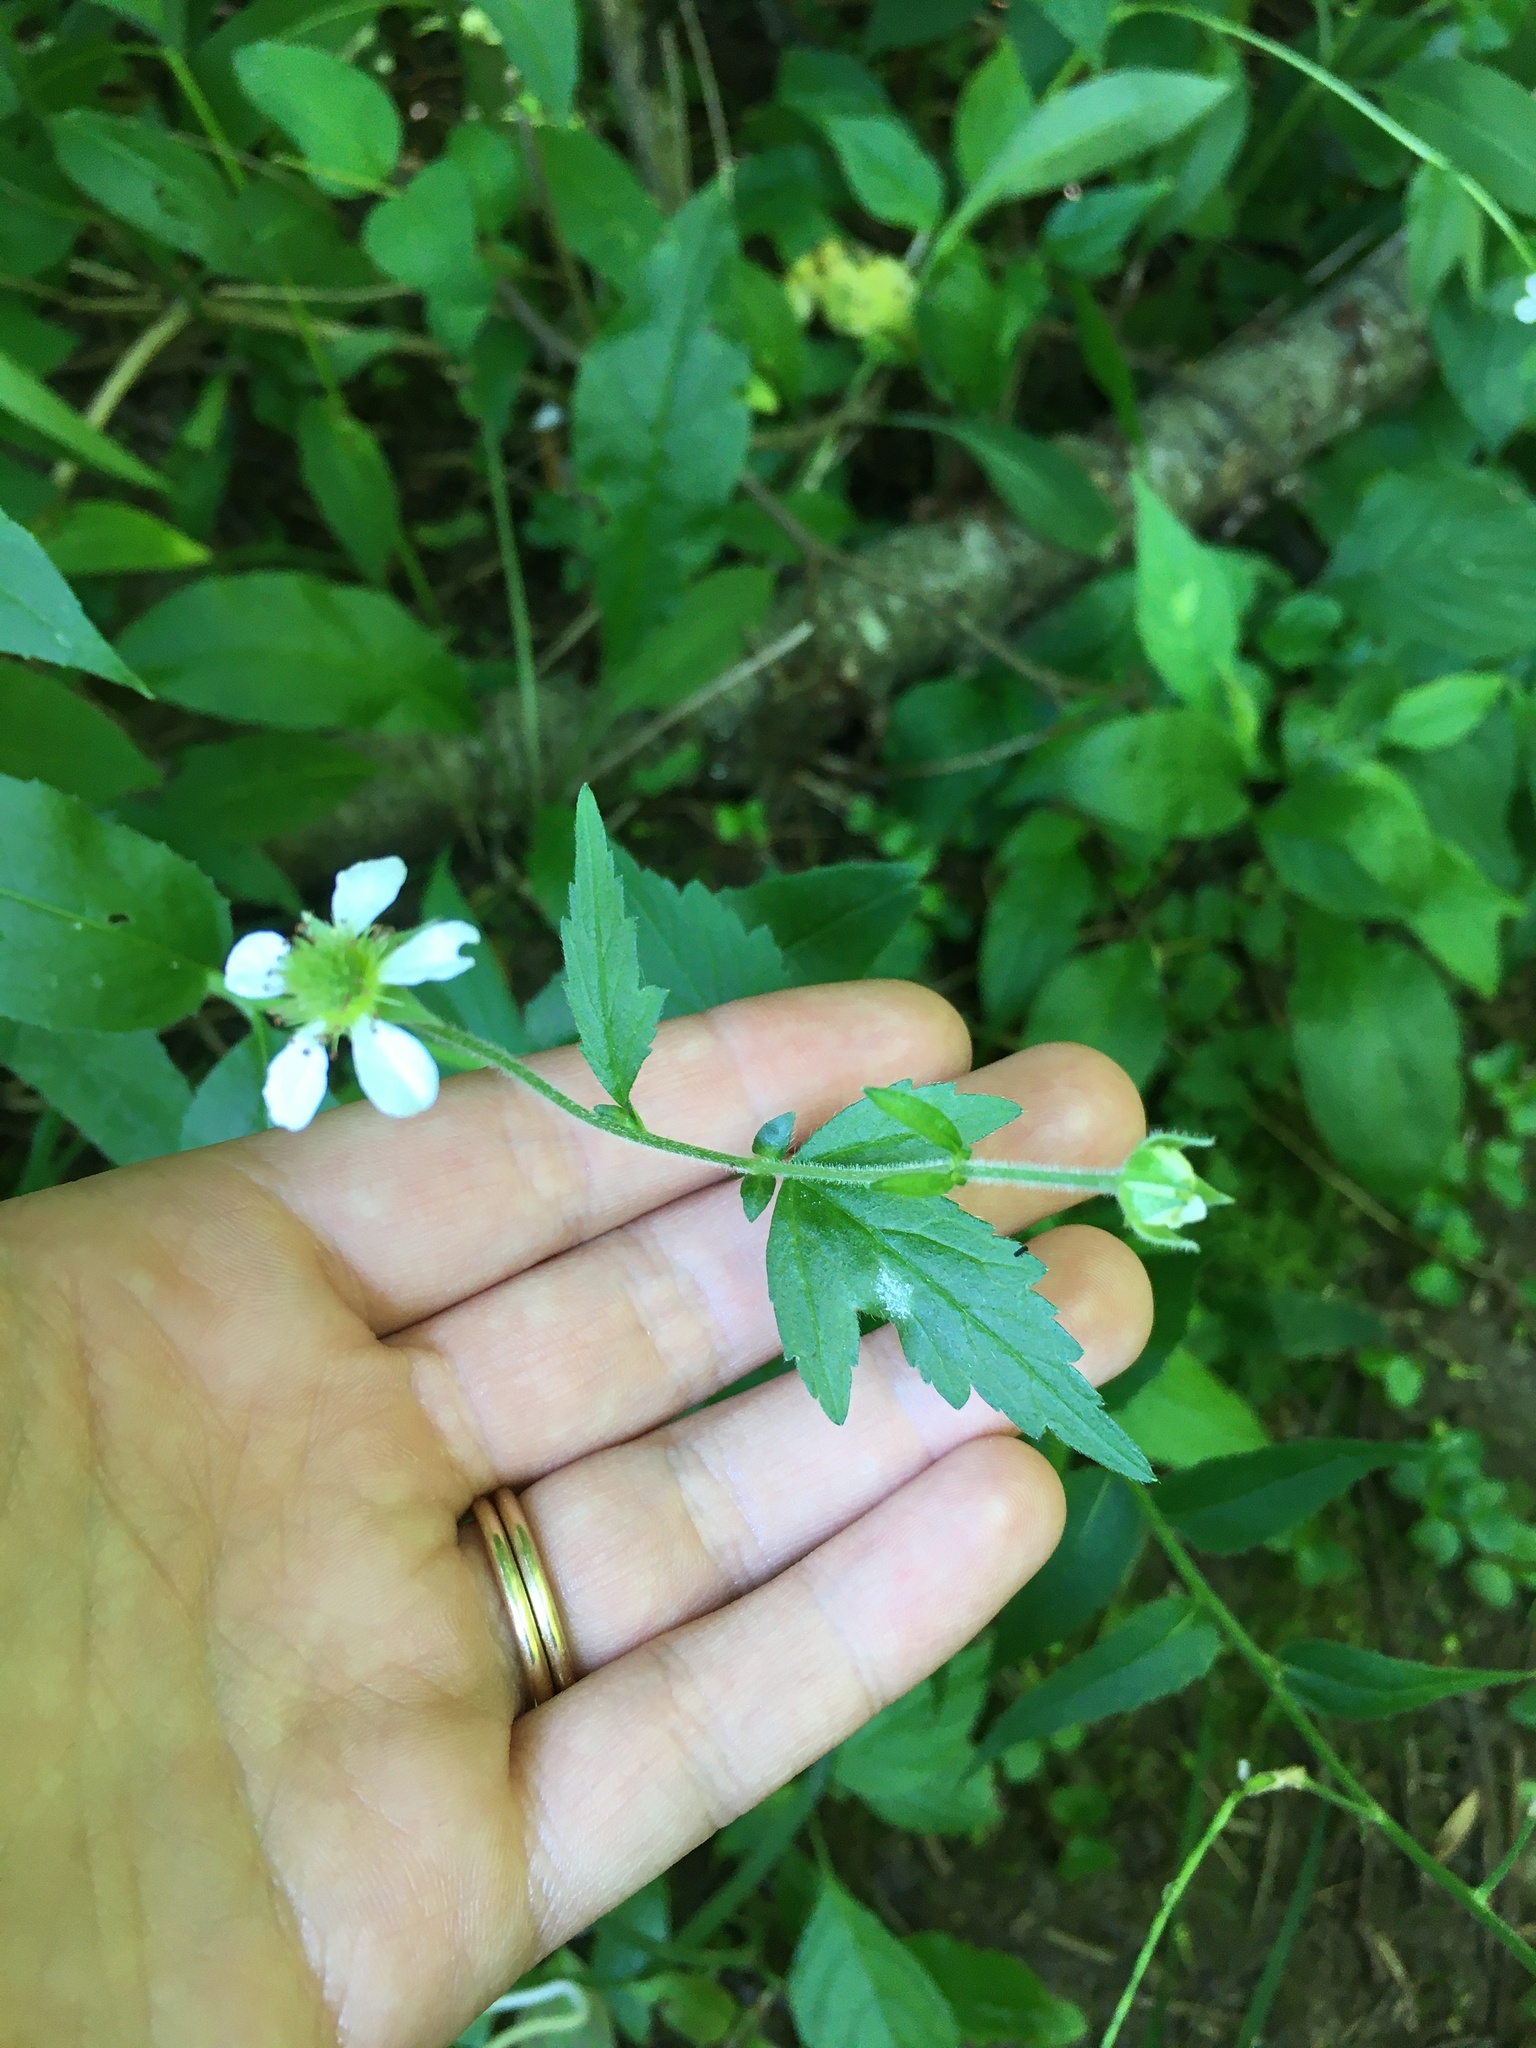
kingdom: Plantae
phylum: Tracheophyta
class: Magnoliopsida
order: Rosales
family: Rosaceae
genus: Geum
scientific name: Geum canadense
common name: White avens
